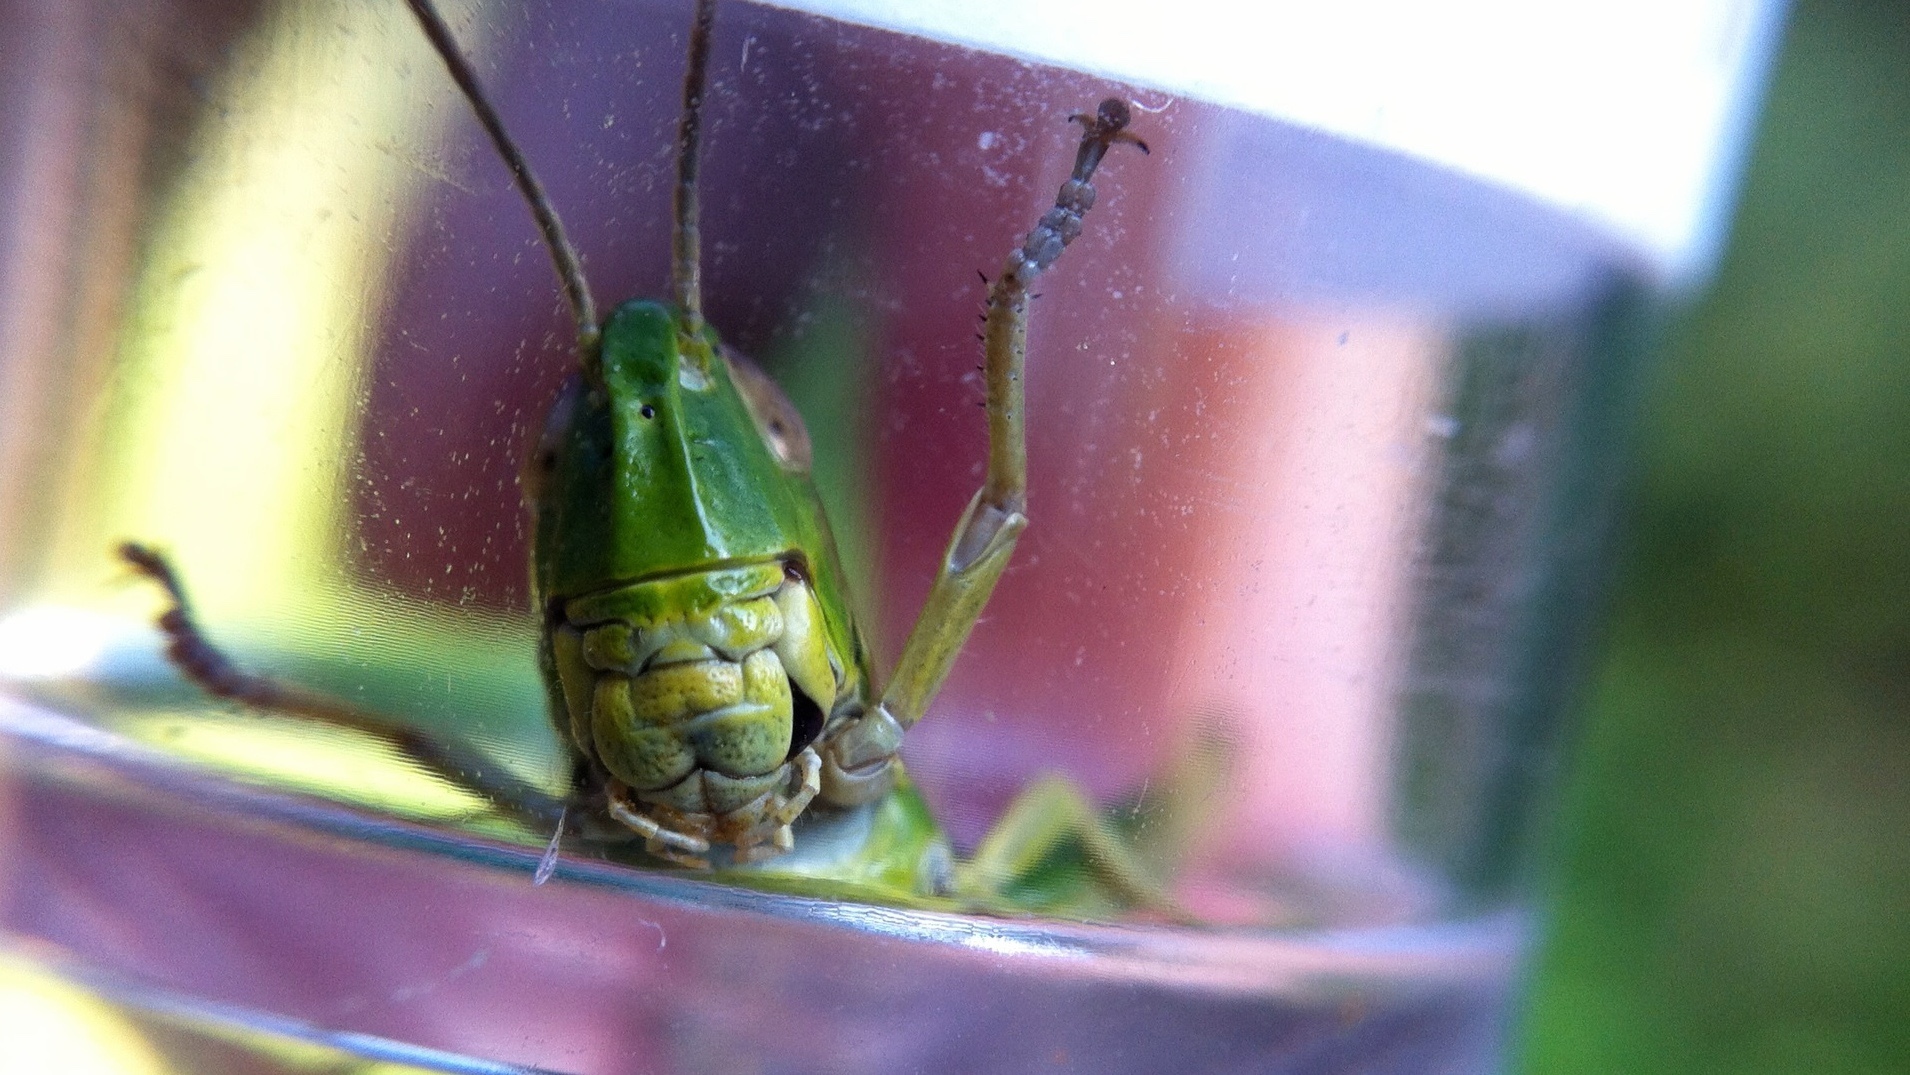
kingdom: Animalia
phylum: Arthropoda
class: Insecta
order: Orthoptera
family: Acrididae
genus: Pseudochorthippus
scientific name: Pseudochorthippus parallelus
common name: Meadow grasshopper
